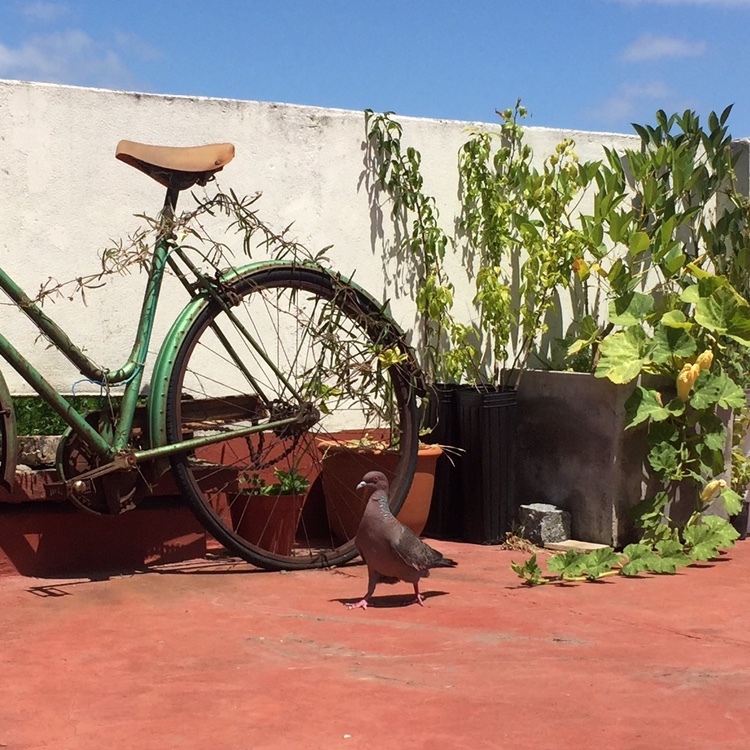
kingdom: Animalia
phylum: Chordata
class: Aves
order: Columbiformes
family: Columbidae
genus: Patagioenas
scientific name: Patagioenas picazuro
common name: Picazuro pigeon
